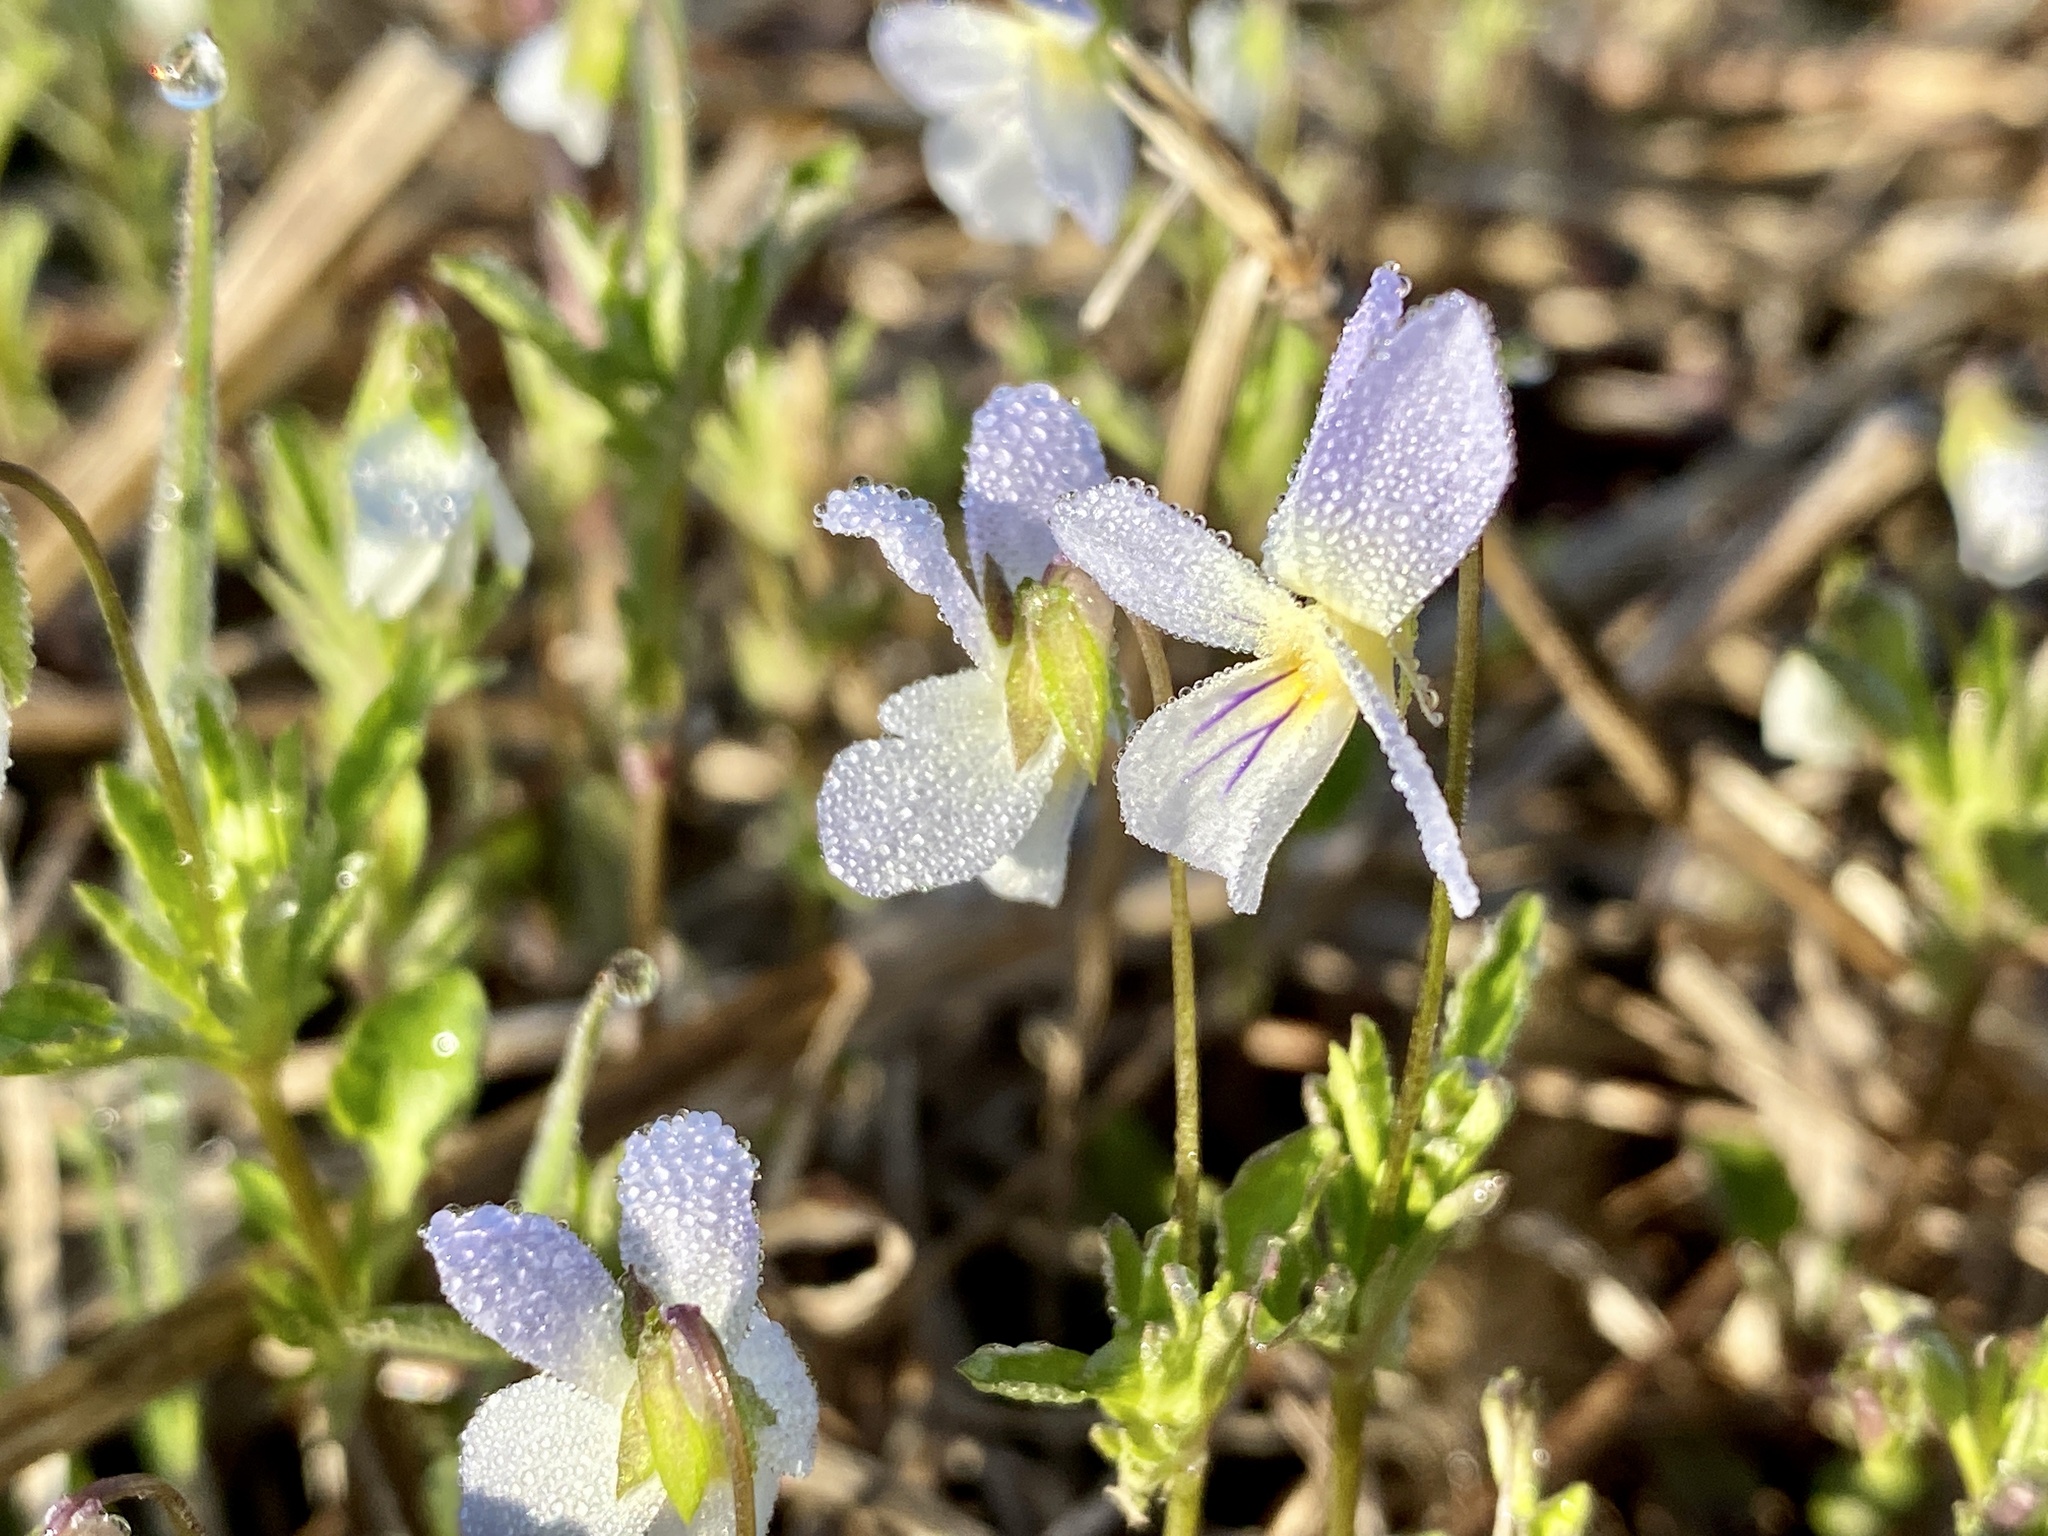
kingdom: Plantae
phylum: Tracheophyta
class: Magnoliopsida
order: Malpighiales
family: Violaceae
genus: Viola
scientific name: Viola rafinesquei
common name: American field pansy
